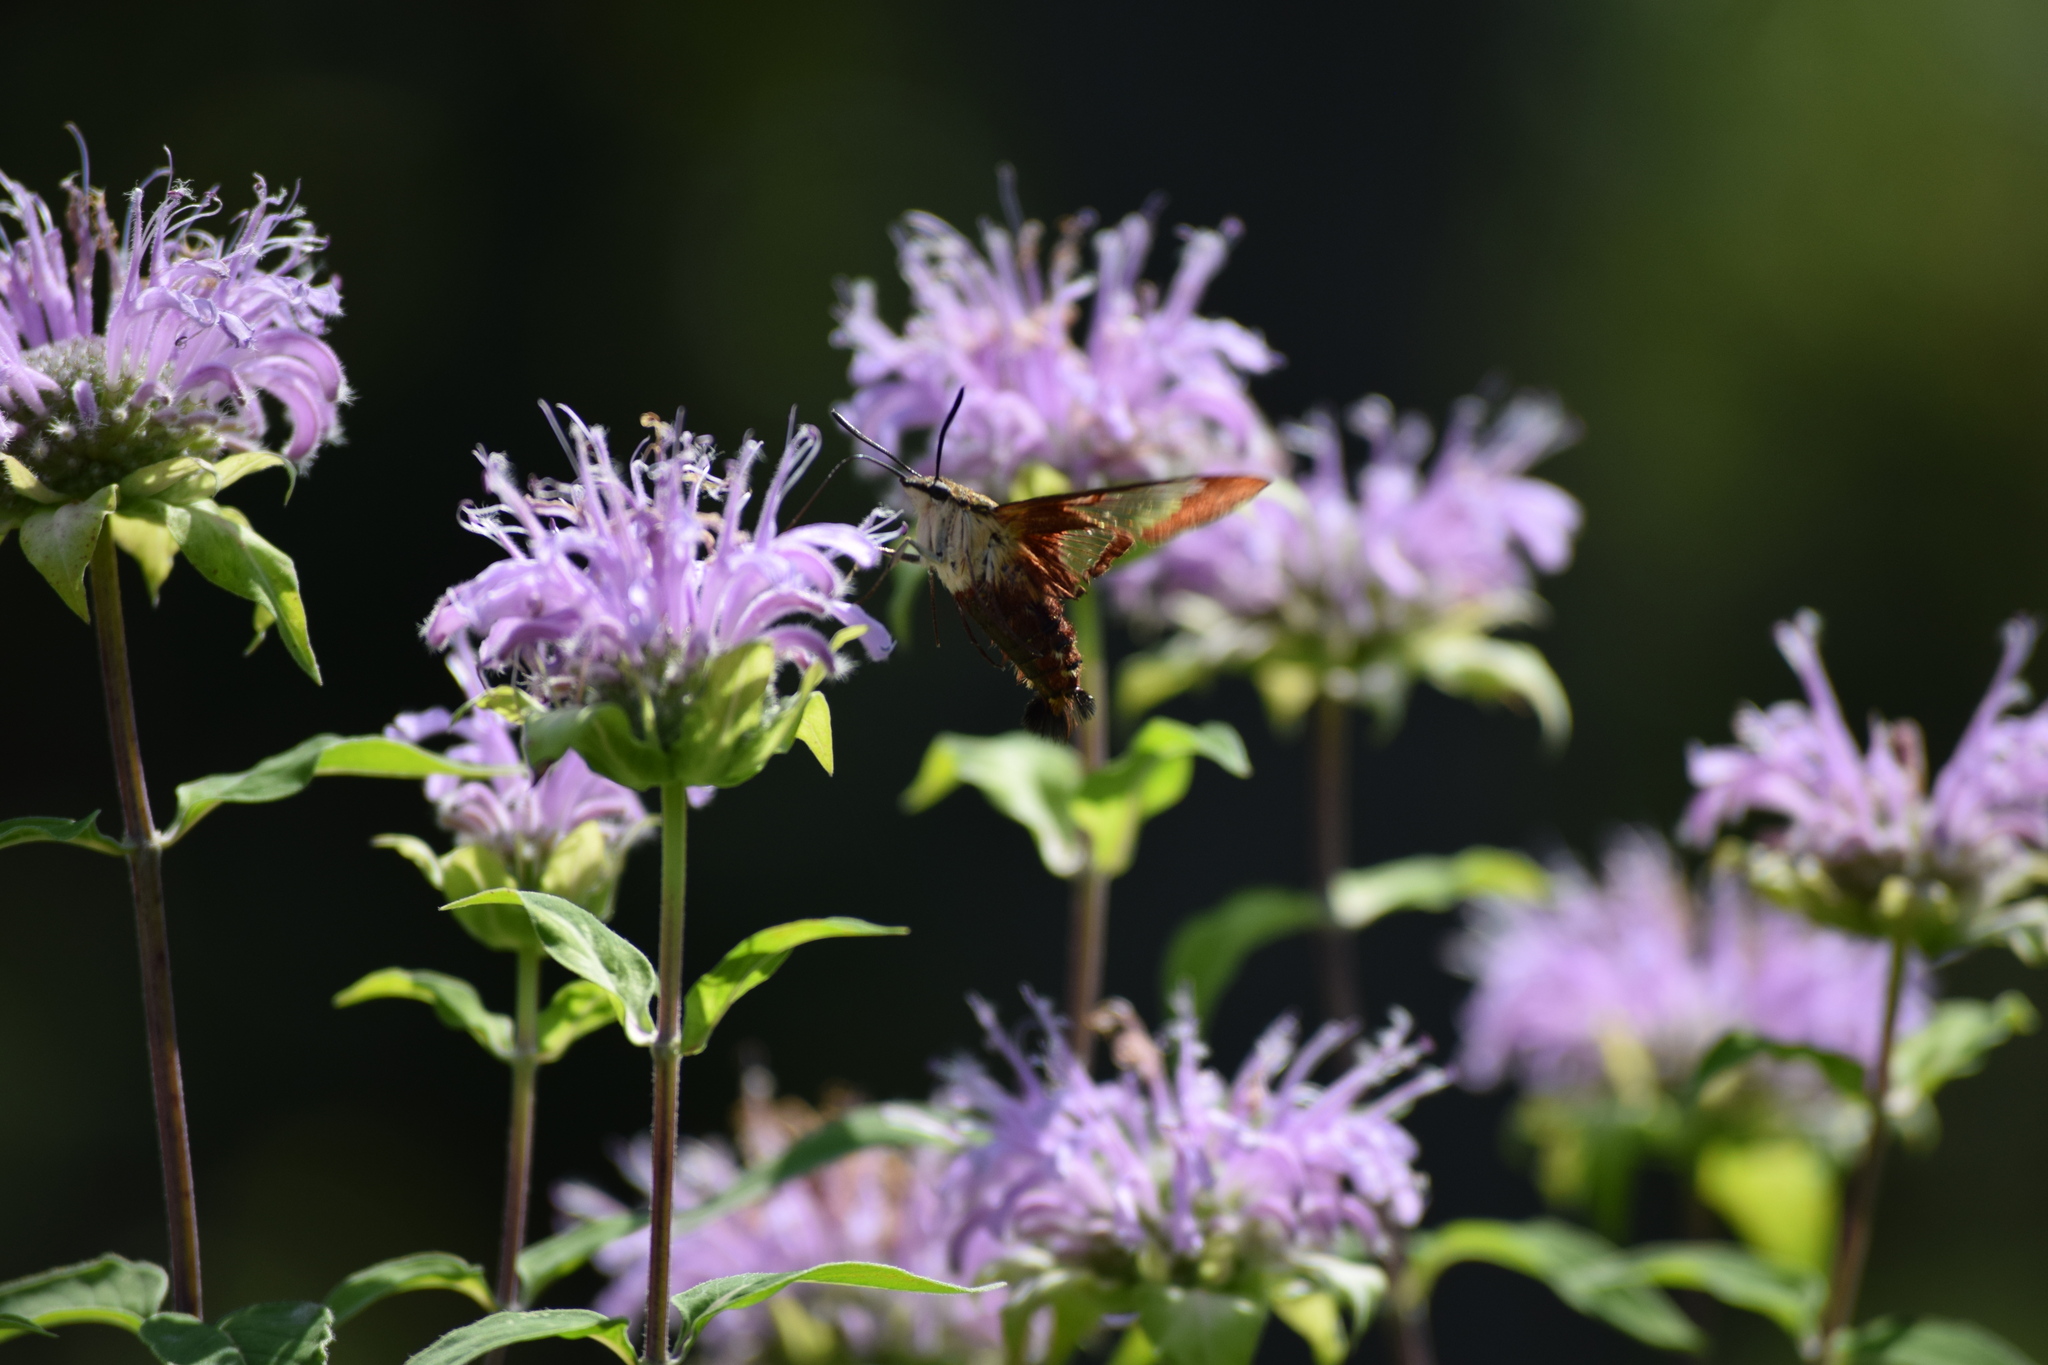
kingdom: Animalia
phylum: Arthropoda
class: Insecta
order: Lepidoptera
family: Sphingidae
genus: Hemaris
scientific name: Hemaris thysbe
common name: Common clear-wing
